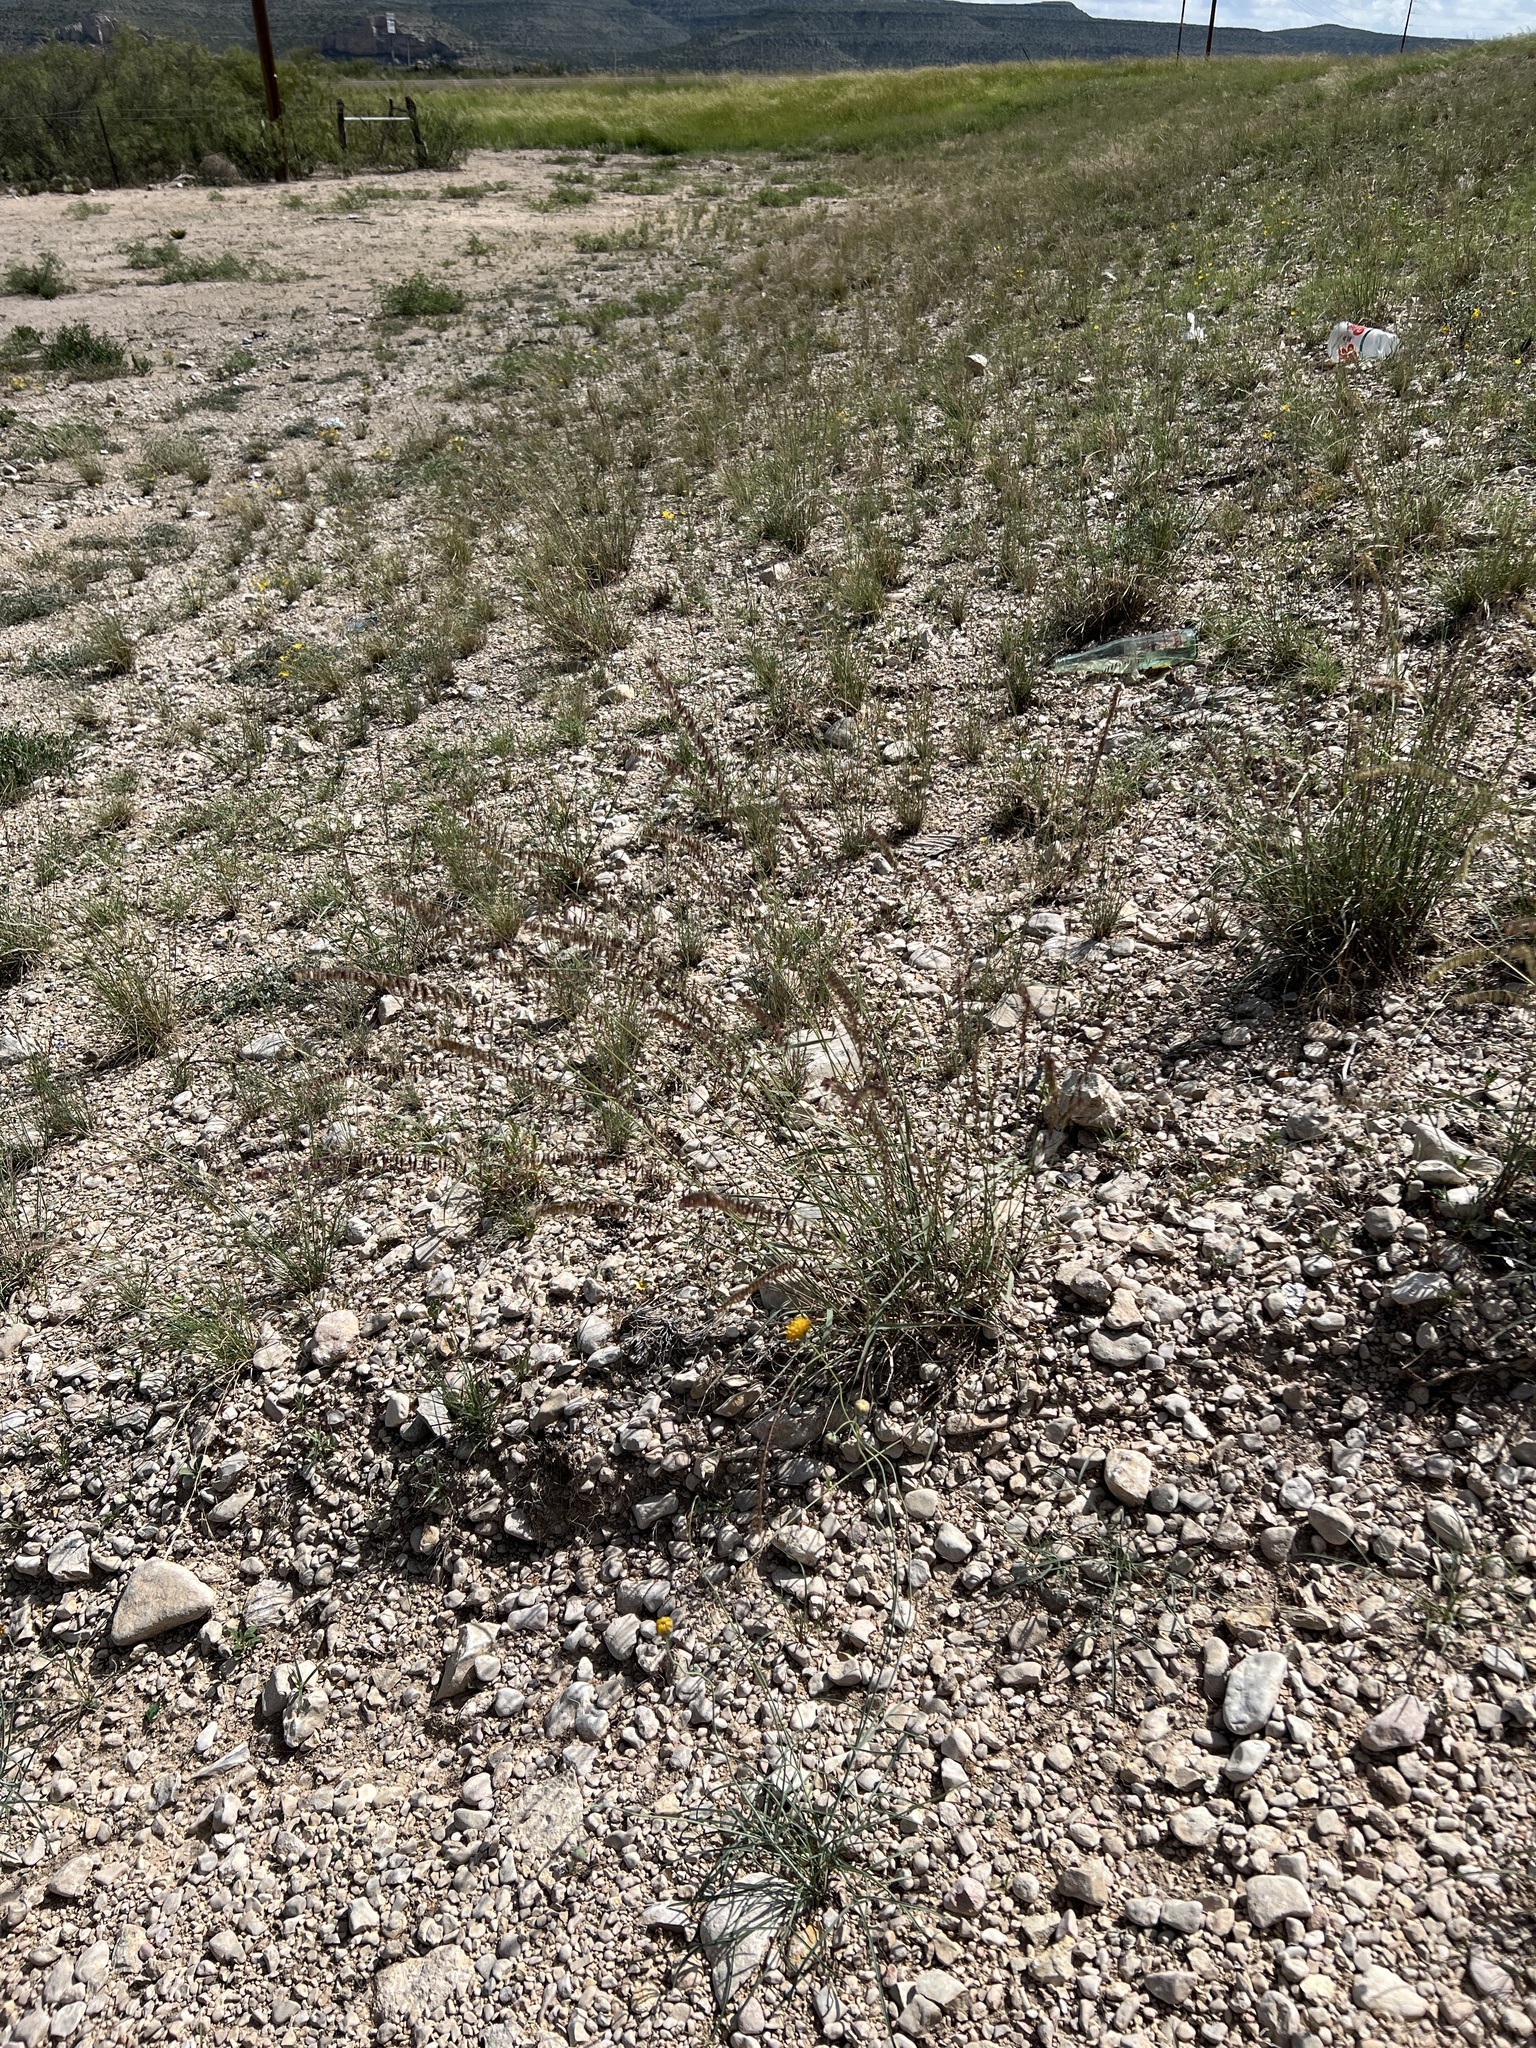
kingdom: Plantae
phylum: Tracheophyta
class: Liliopsida
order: Poales
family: Poaceae
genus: Bouteloua
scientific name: Bouteloua curtipendula
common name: Side-oats grama
